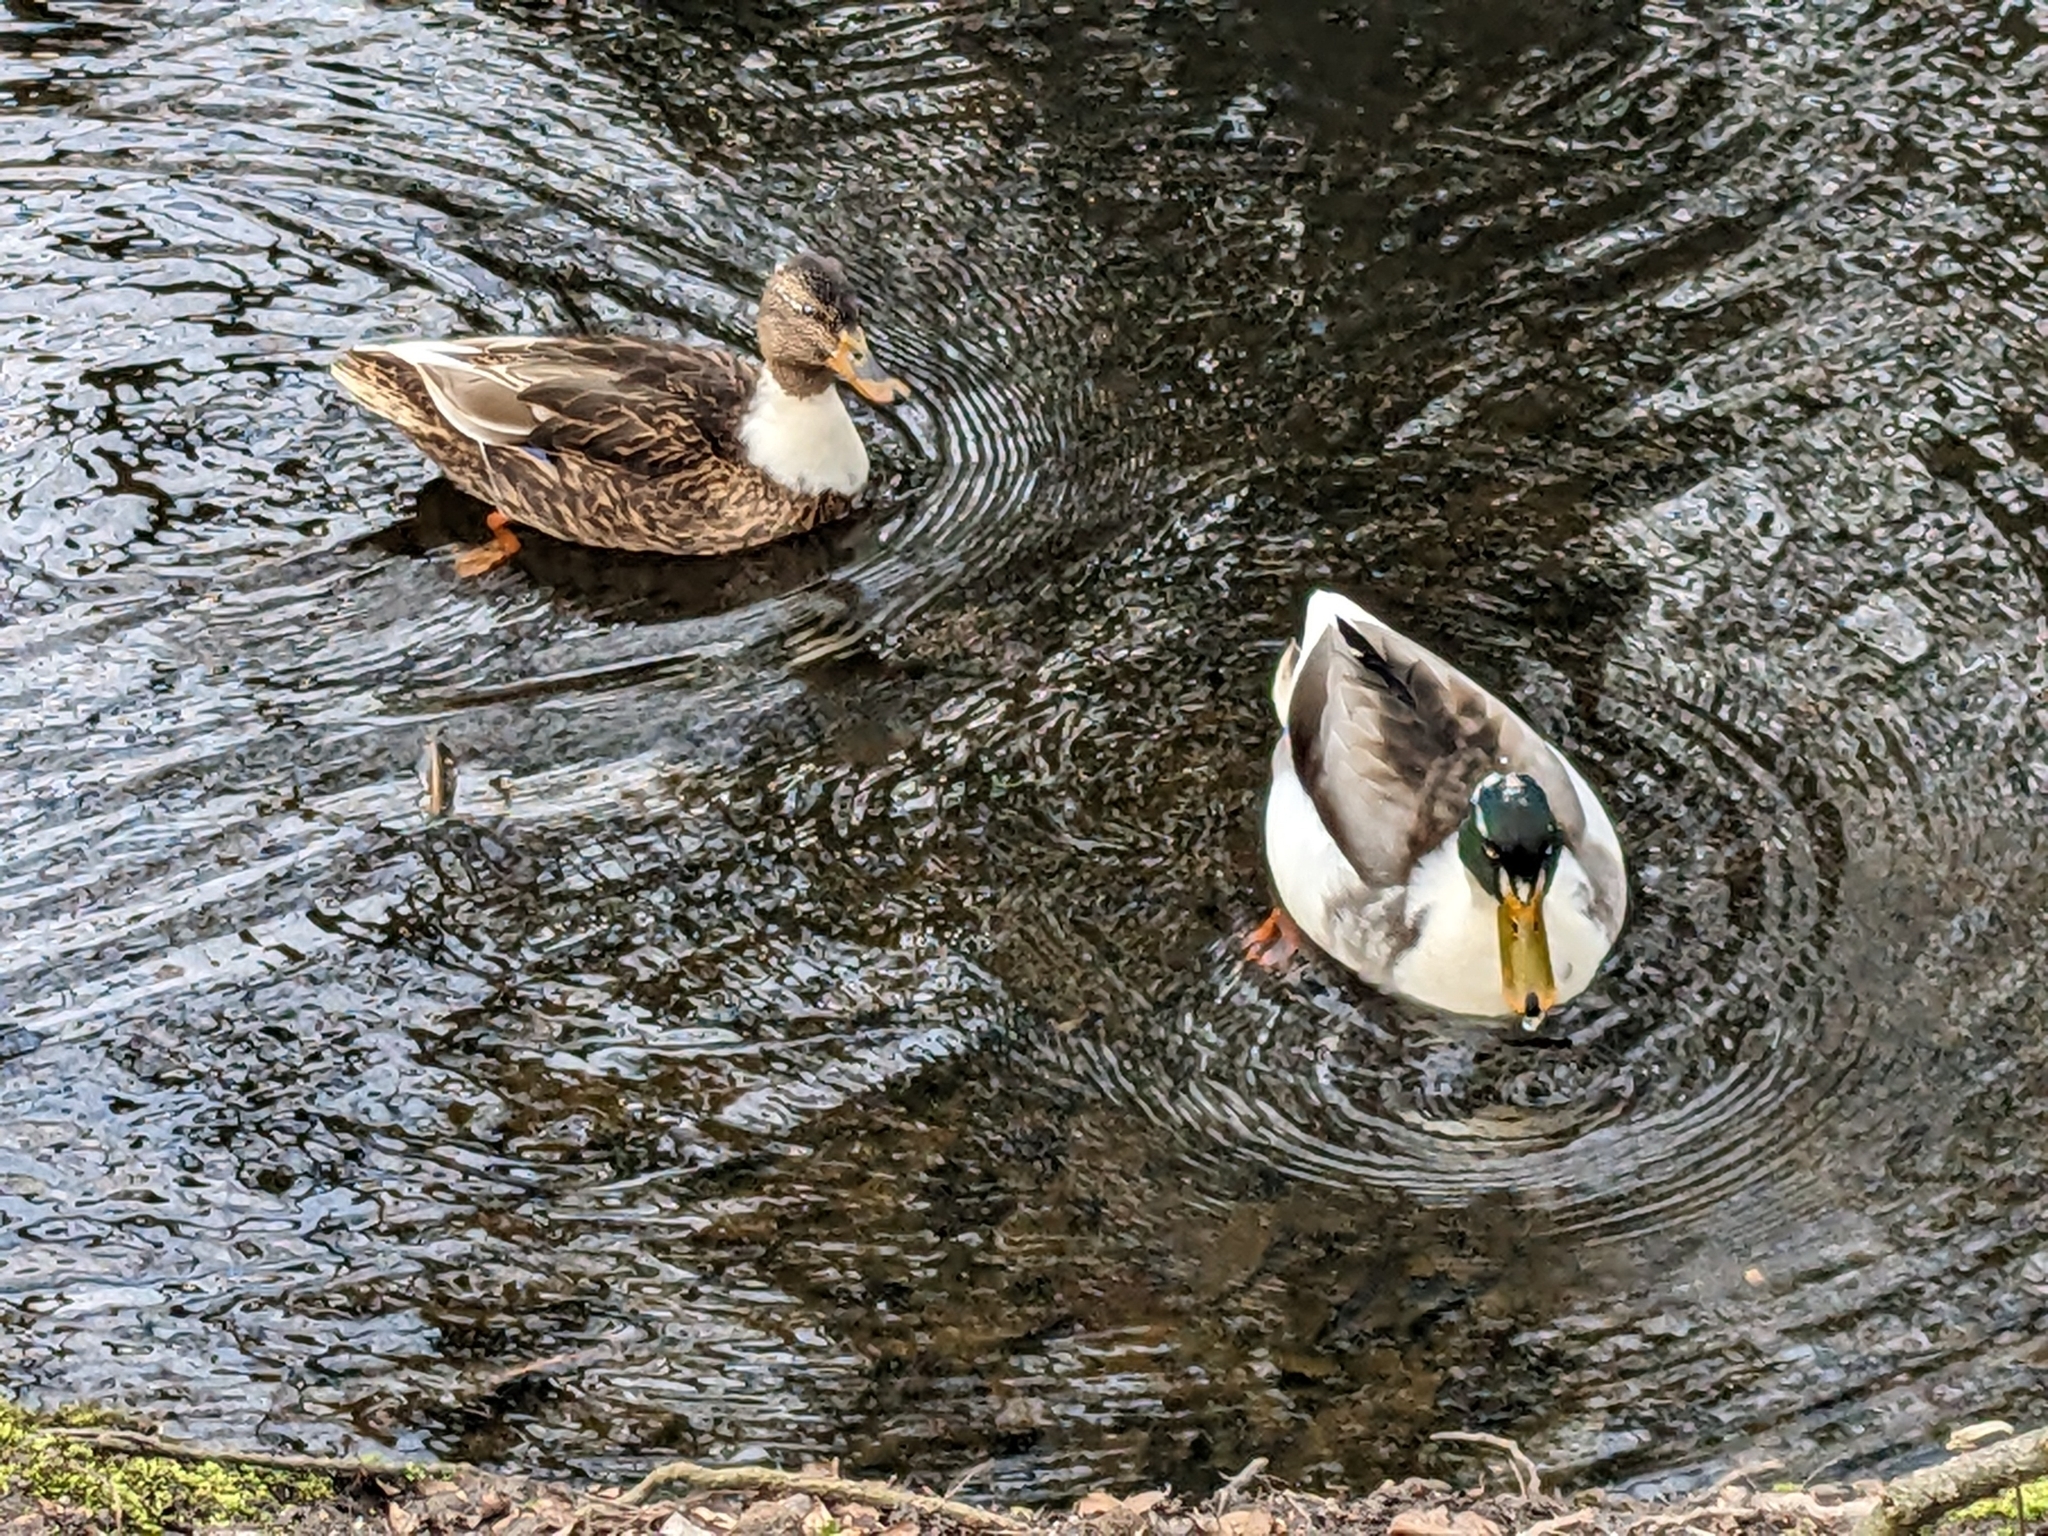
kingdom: Animalia
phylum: Chordata
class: Aves
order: Anseriformes
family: Anatidae
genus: Anas
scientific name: Anas platyrhynchos
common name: Mallard
